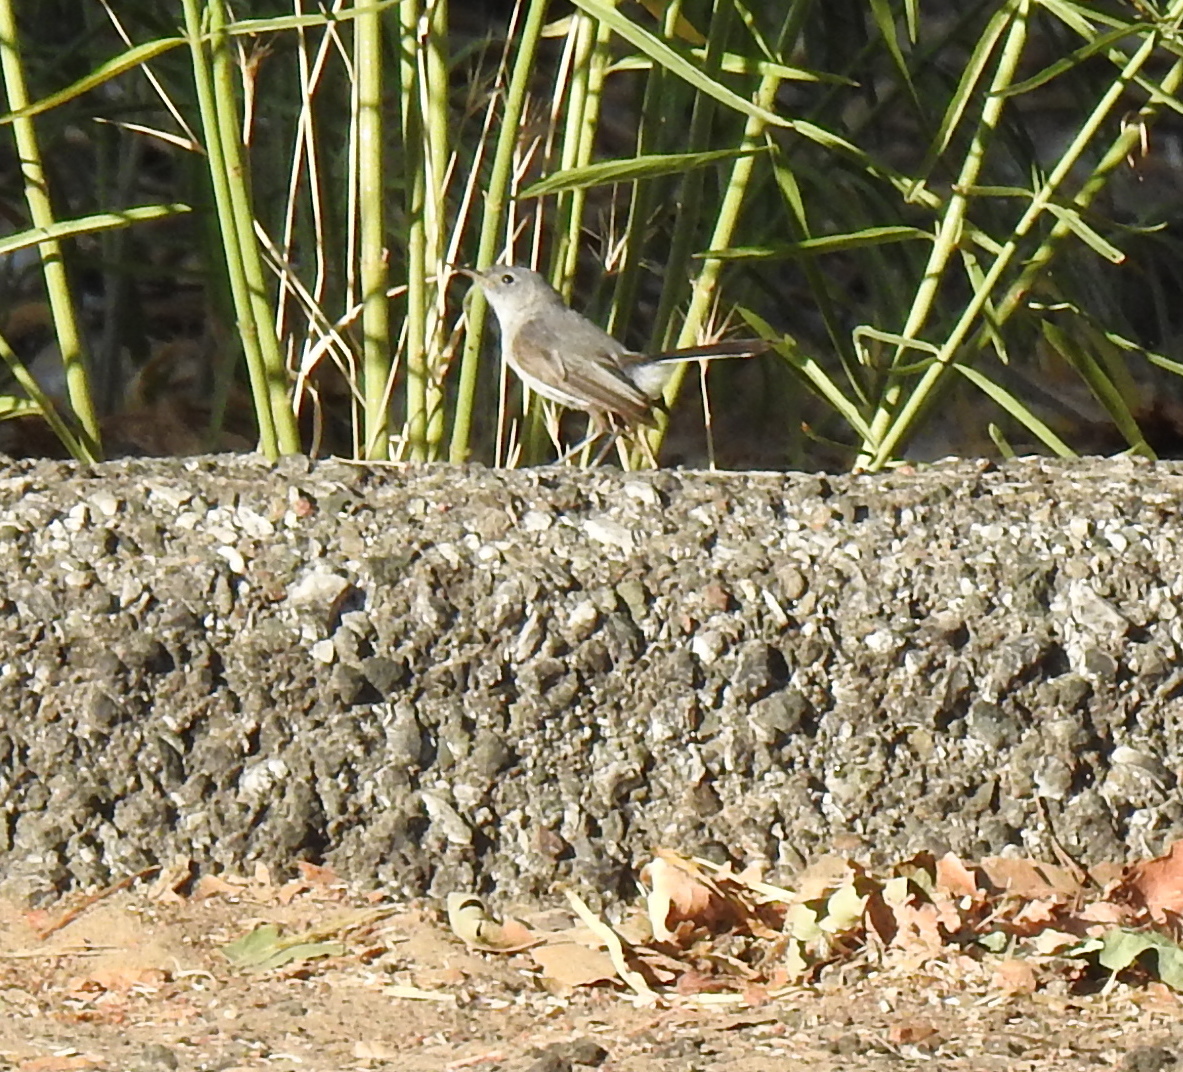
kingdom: Animalia
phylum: Chordata
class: Aves
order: Passeriformes
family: Polioptilidae
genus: Polioptila
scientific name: Polioptila caerulea
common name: Blue-gray gnatcatcher
